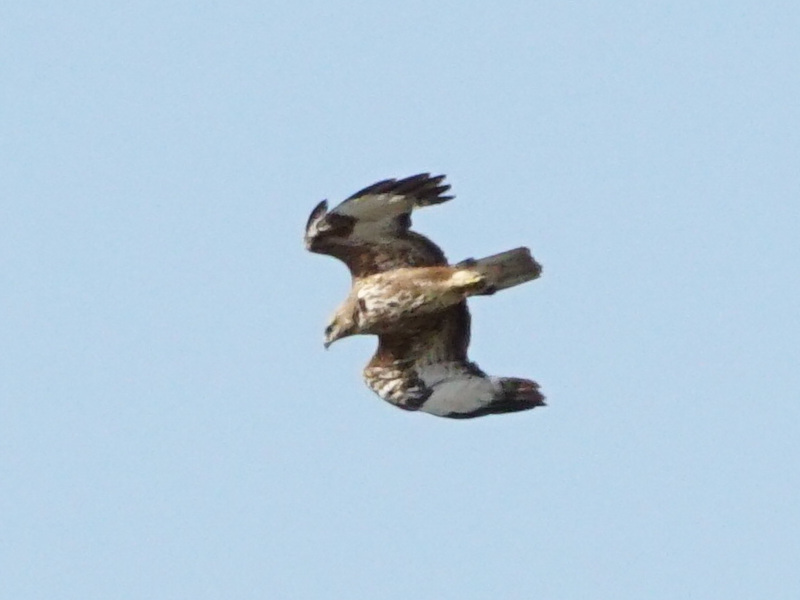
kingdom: Animalia
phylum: Chordata
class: Aves
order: Accipitriformes
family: Accipitridae
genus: Buteo
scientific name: Buteo buteo
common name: Common buzzard
